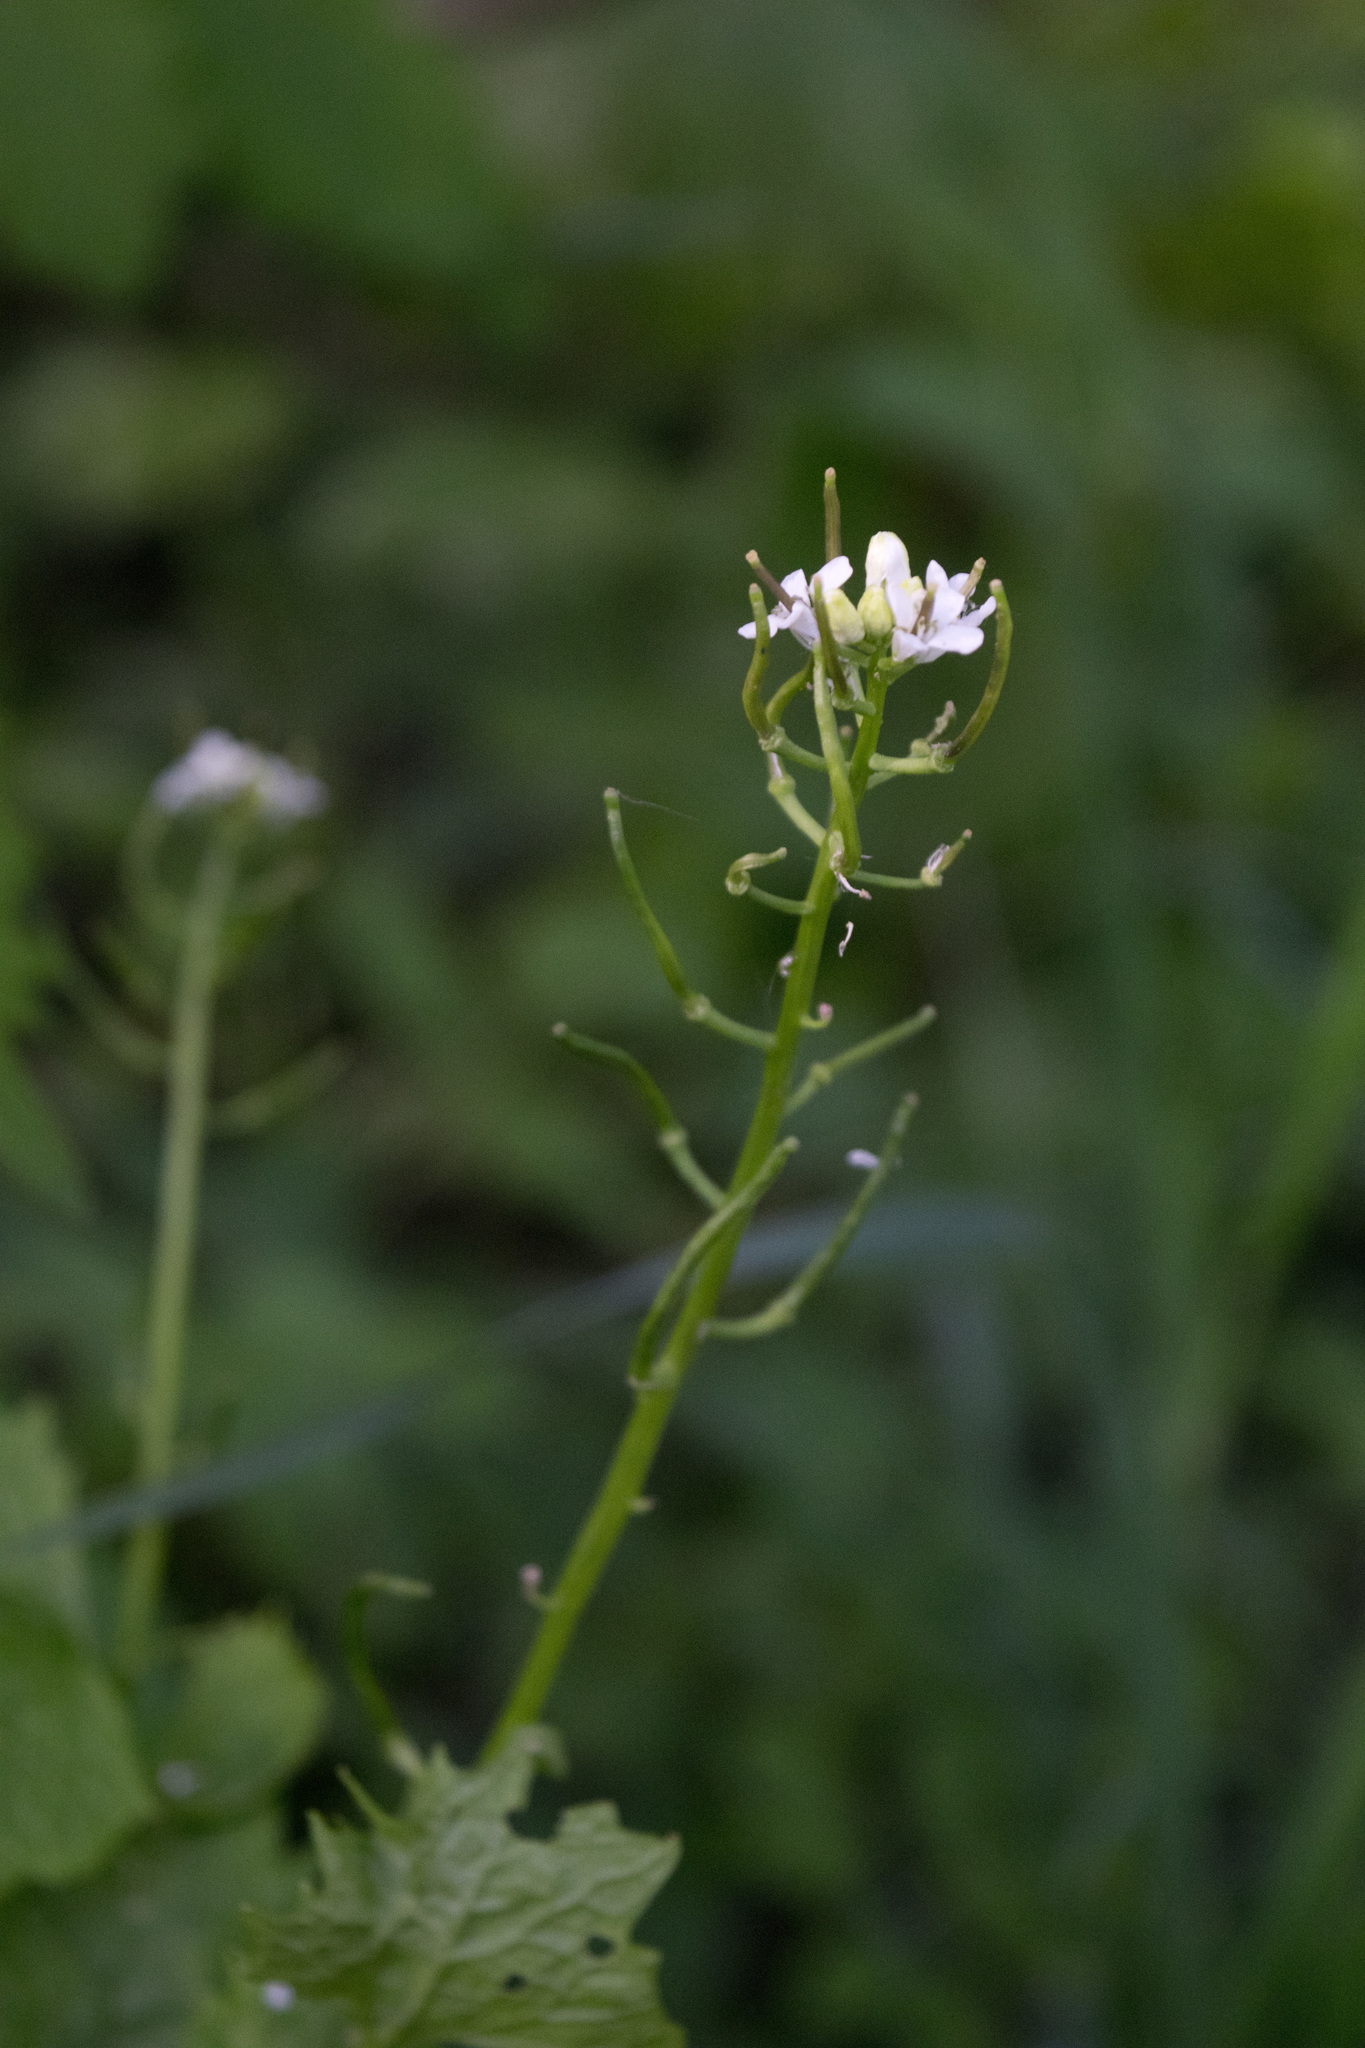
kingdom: Plantae
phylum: Tracheophyta
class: Magnoliopsida
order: Brassicales
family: Brassicaceae
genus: Alliaria
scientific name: Alliaria petiolata
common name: Garlic mustard
